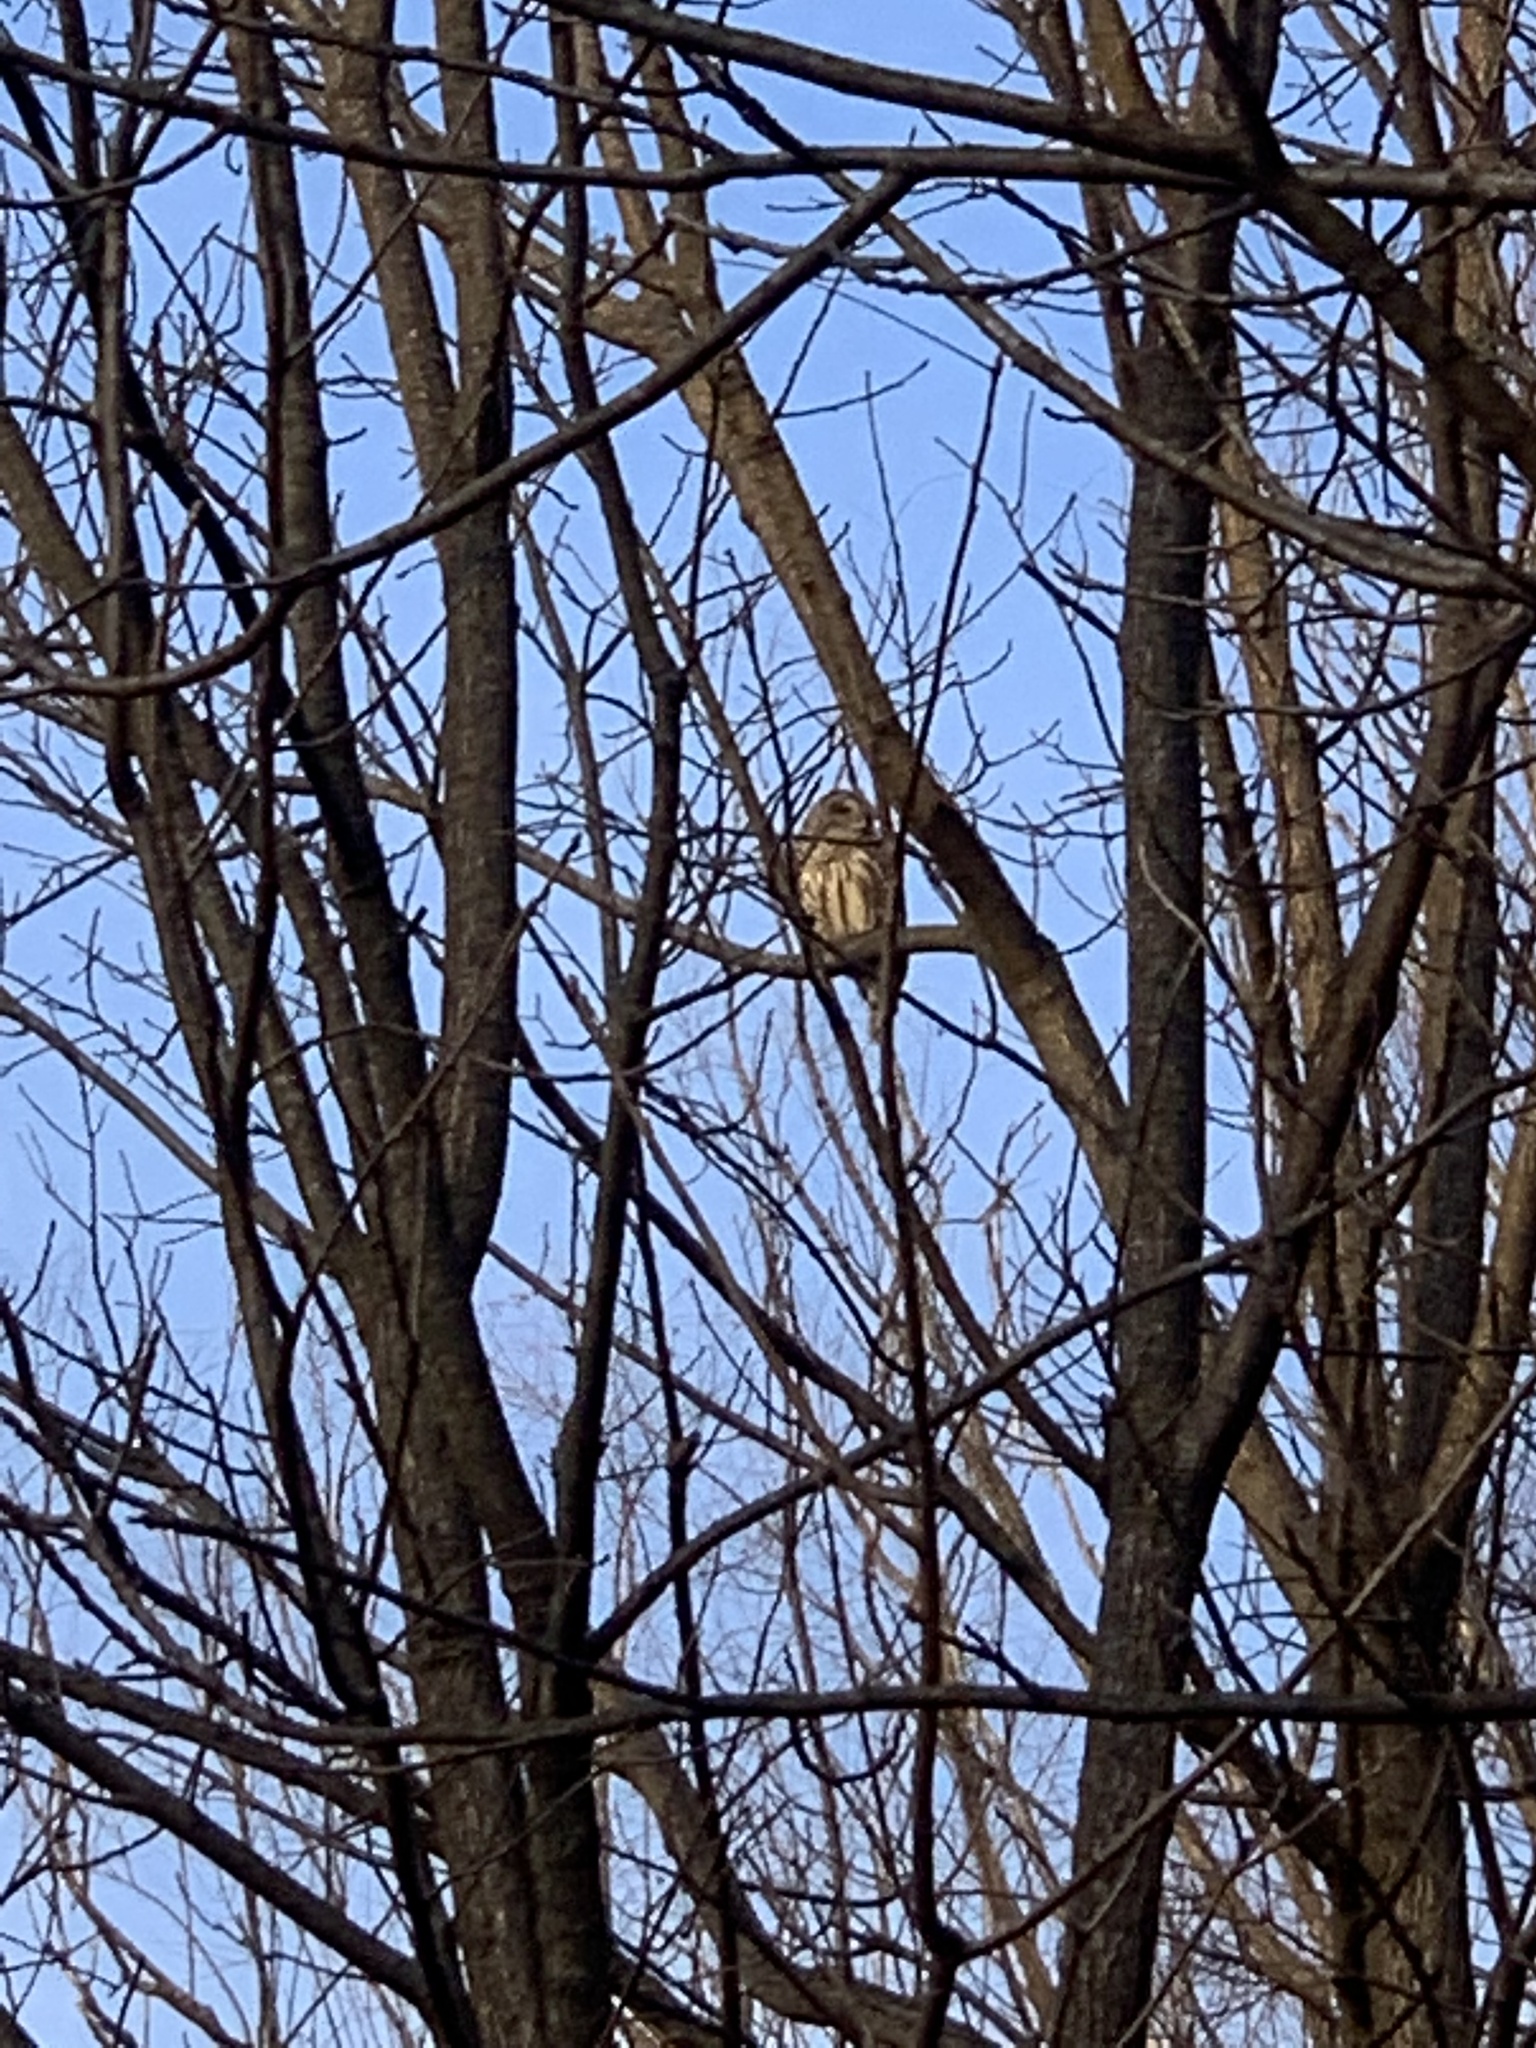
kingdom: Animalia
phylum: Chordata
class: Aves
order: Strigiformes
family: Strigidae
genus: Strix
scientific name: Strix varia
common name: Barred owl
